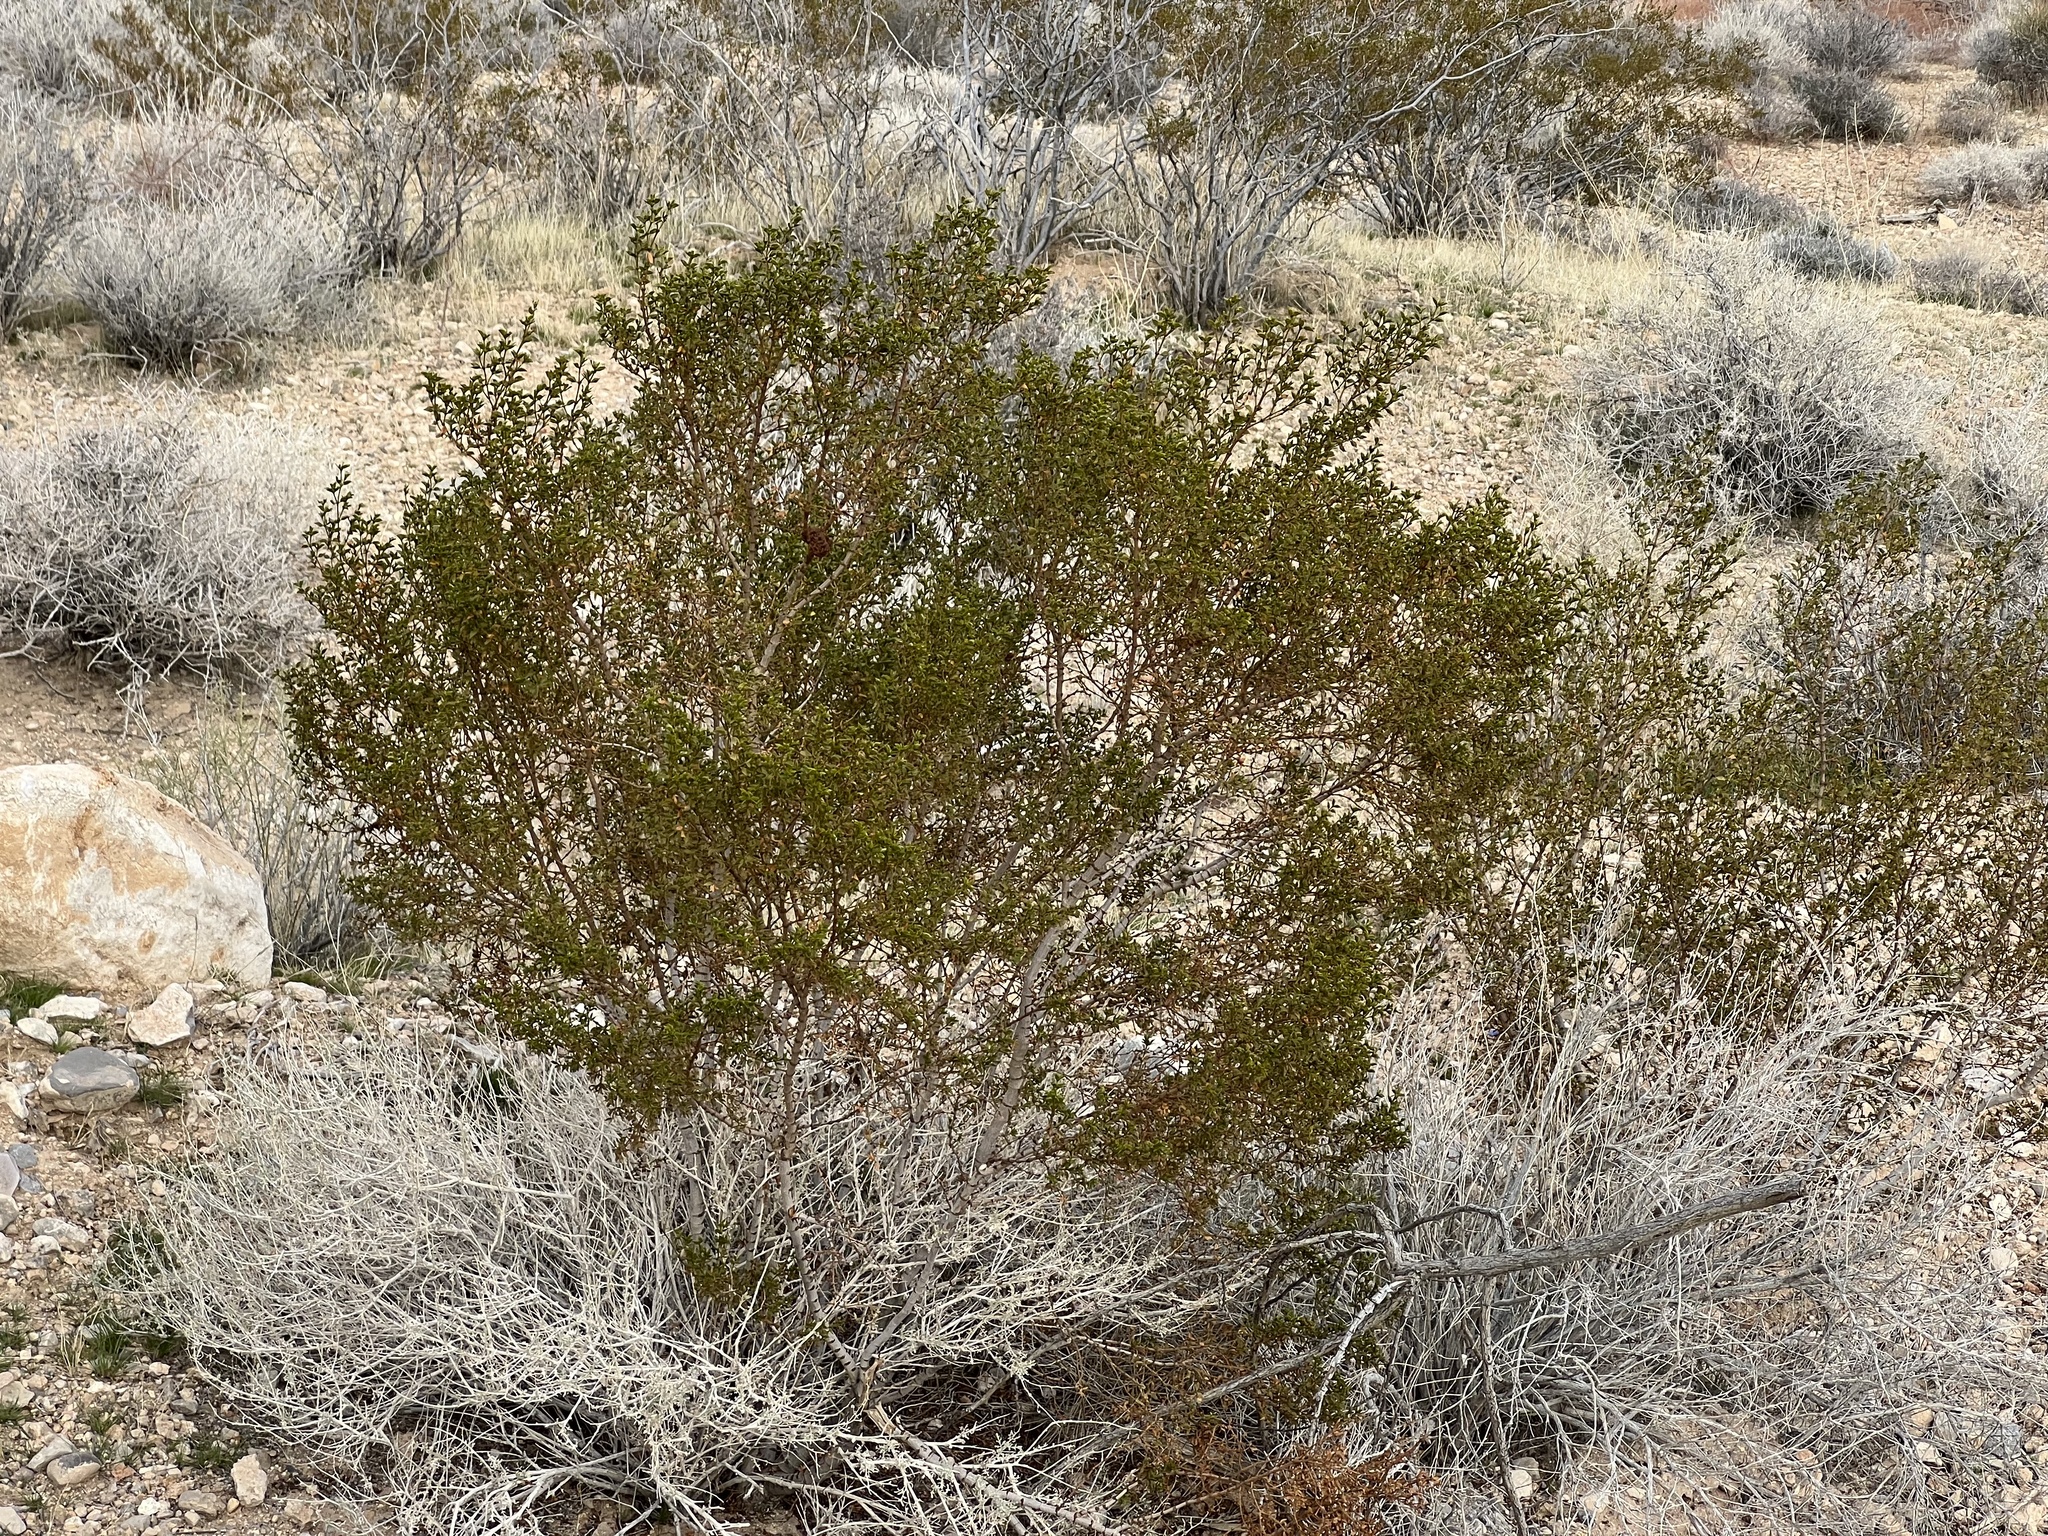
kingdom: Plantae
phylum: Tracheophyta
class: Magnoliopsida
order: Zygophyllales
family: Zygophyllaceae
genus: Larrea
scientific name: Larrea tridentata
